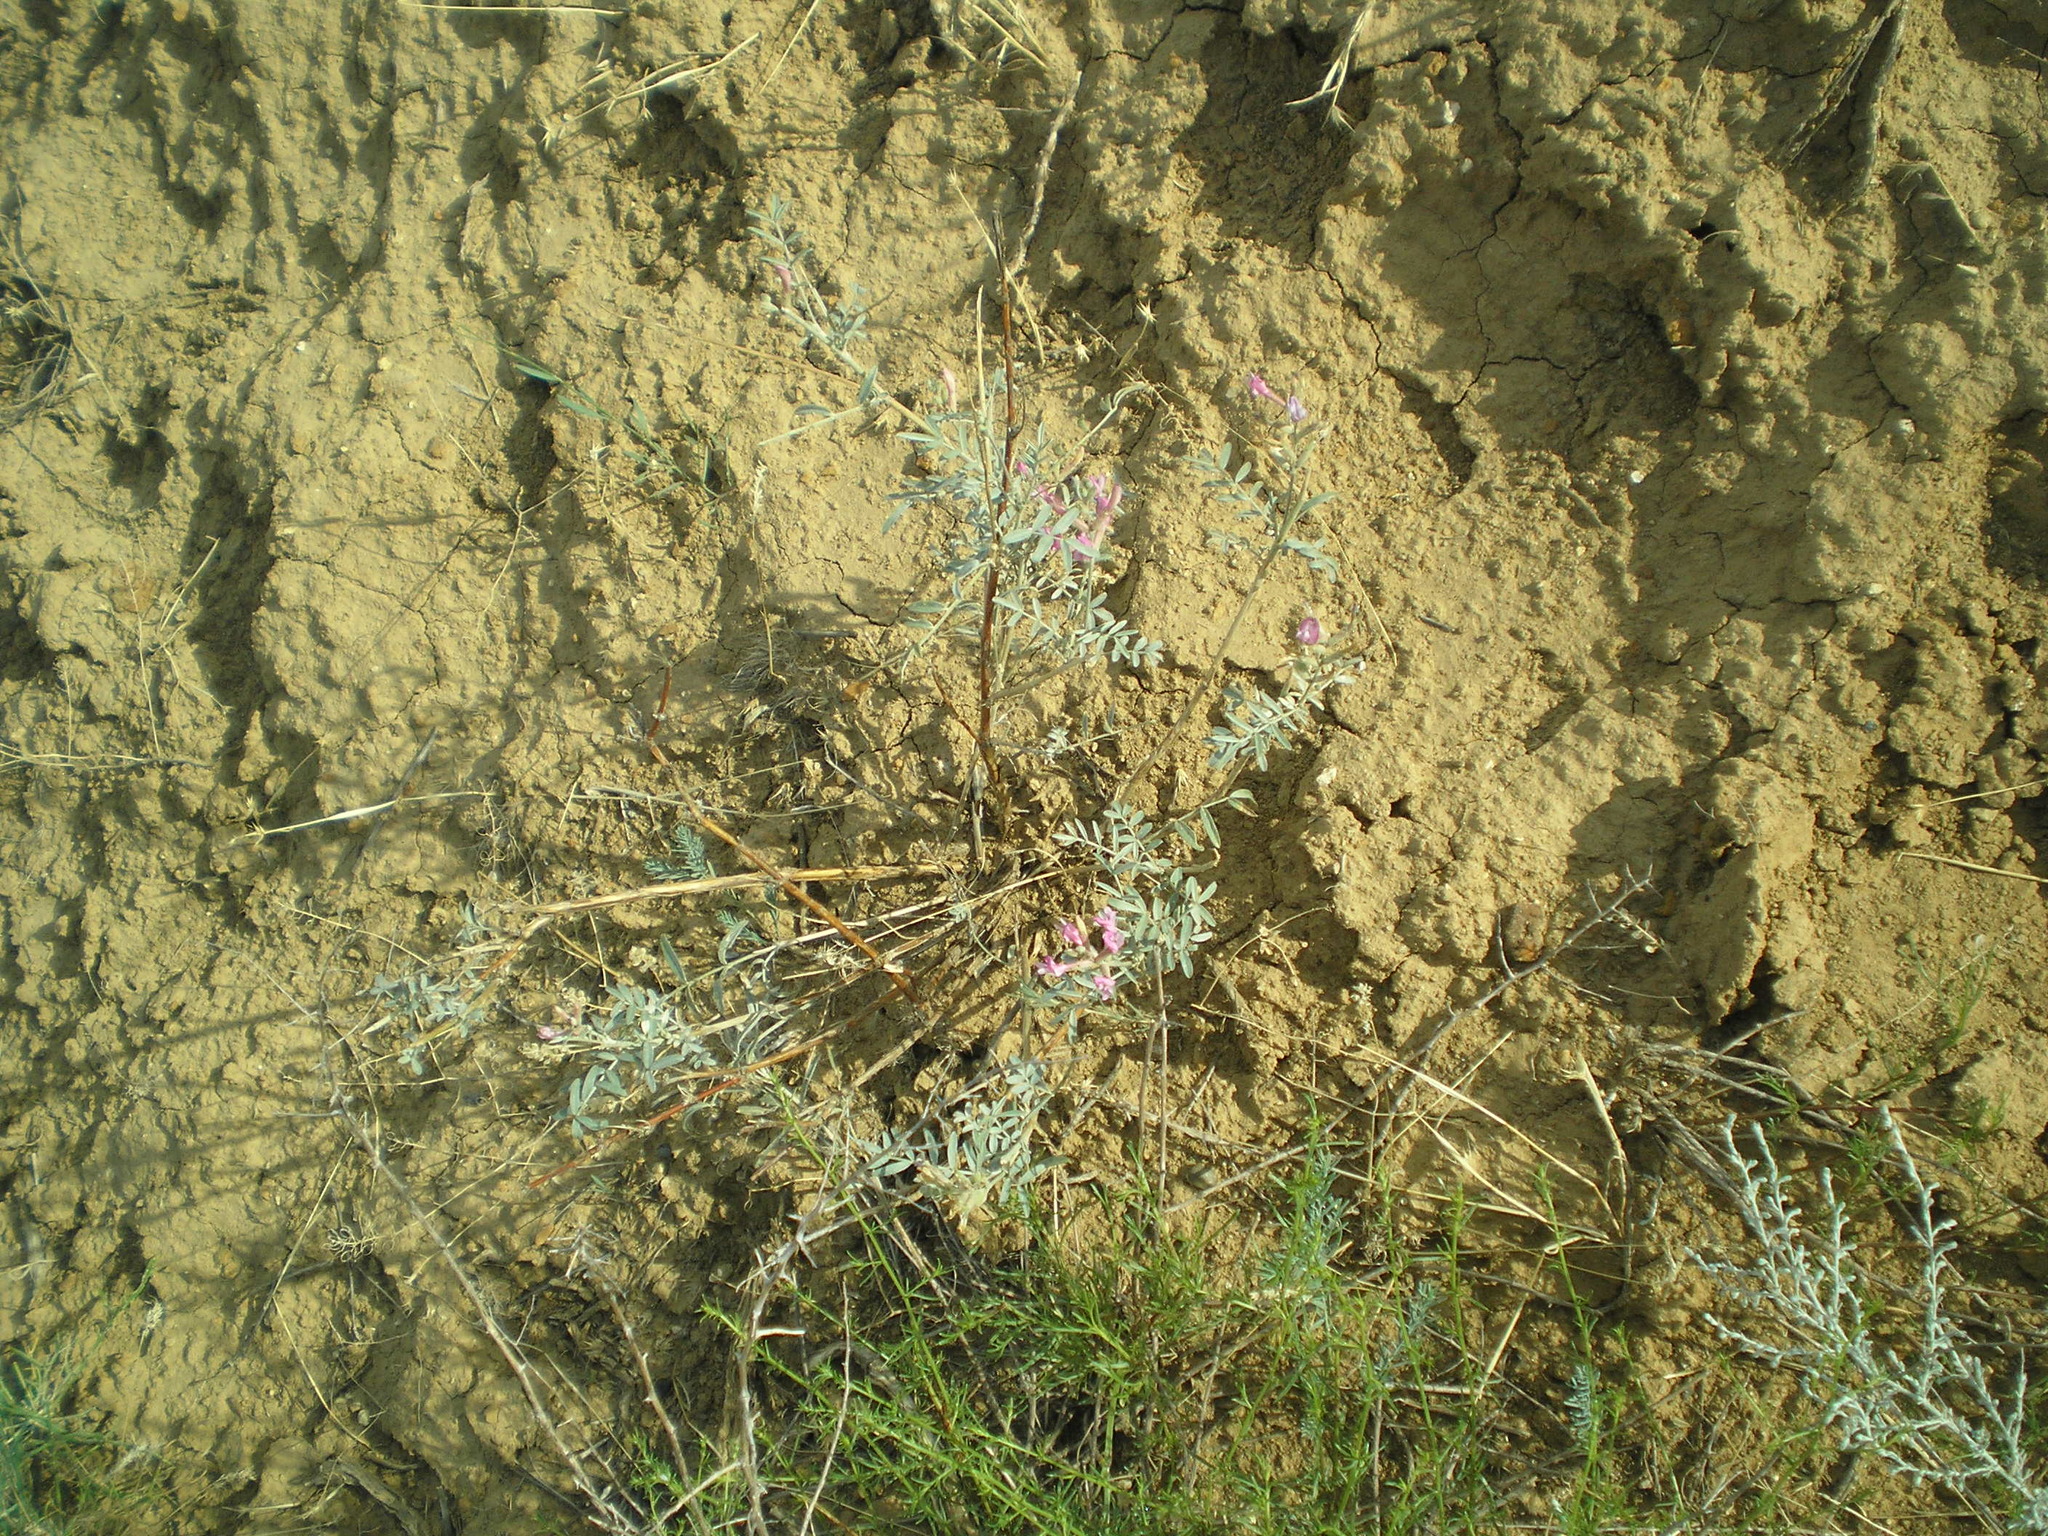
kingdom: Plantae
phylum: Tracheophyta
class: Magnoliopsida
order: Fabales
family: Fabaceae
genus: Astragalus
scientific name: Astragalus varius
